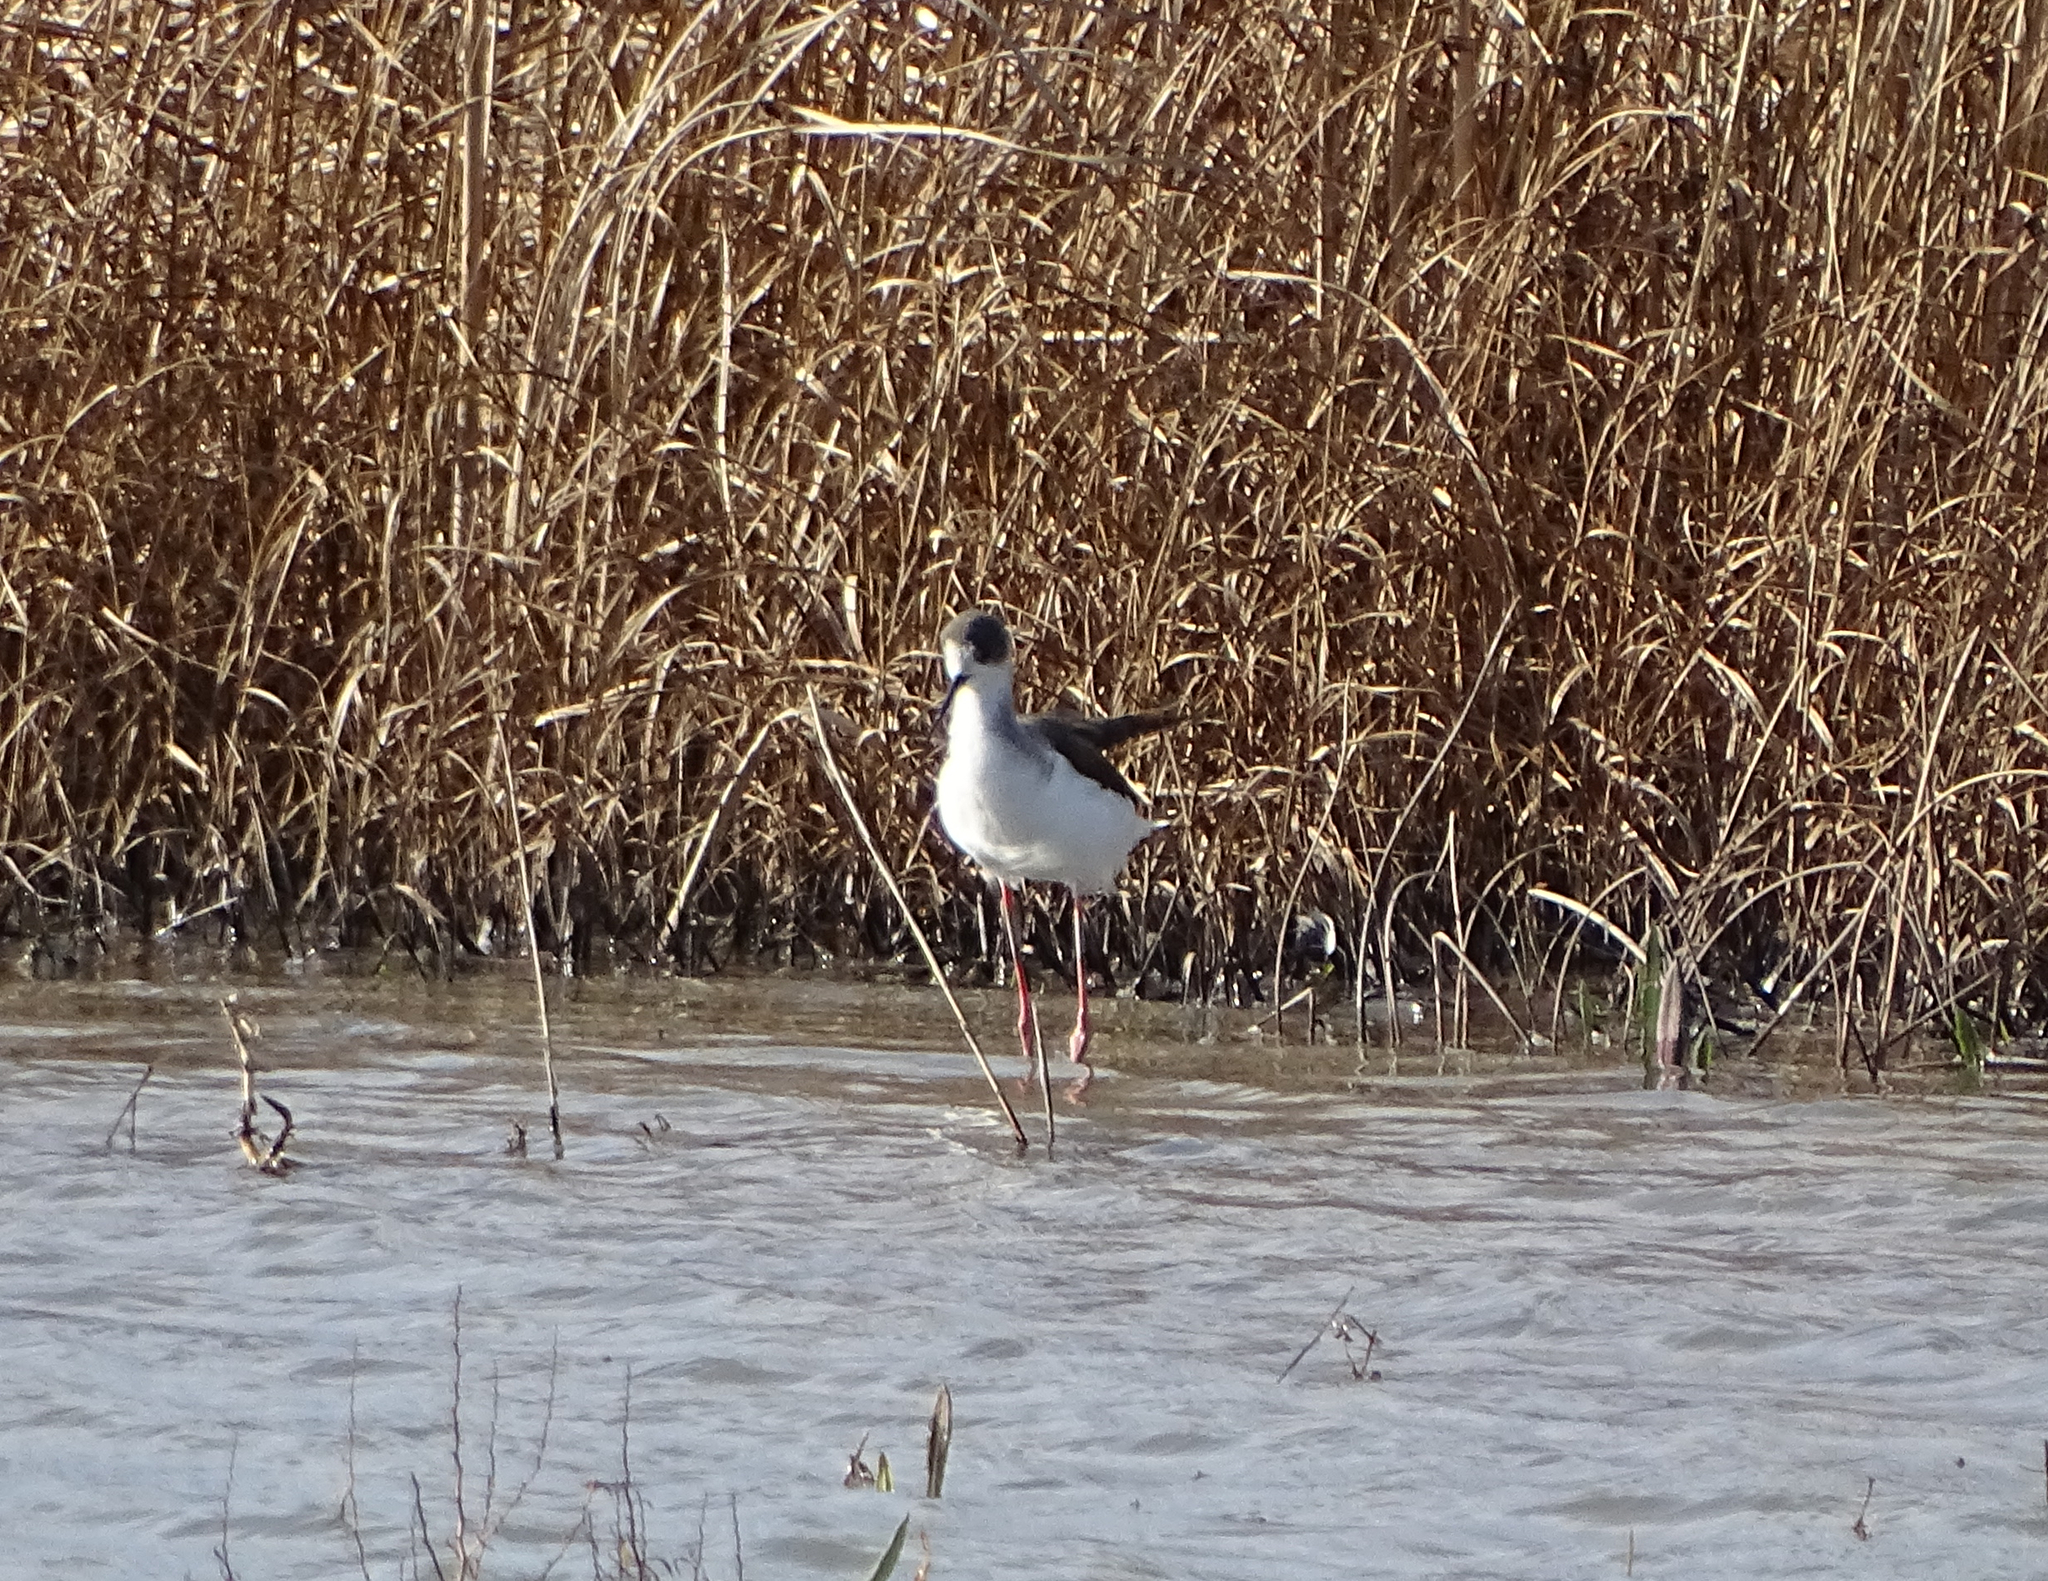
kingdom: Animalia
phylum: Chordata
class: Aves
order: Charadriiformes
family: Recurvirostridae
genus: Himantopus
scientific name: Himantopus himantopus
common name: Black-winged stilt
